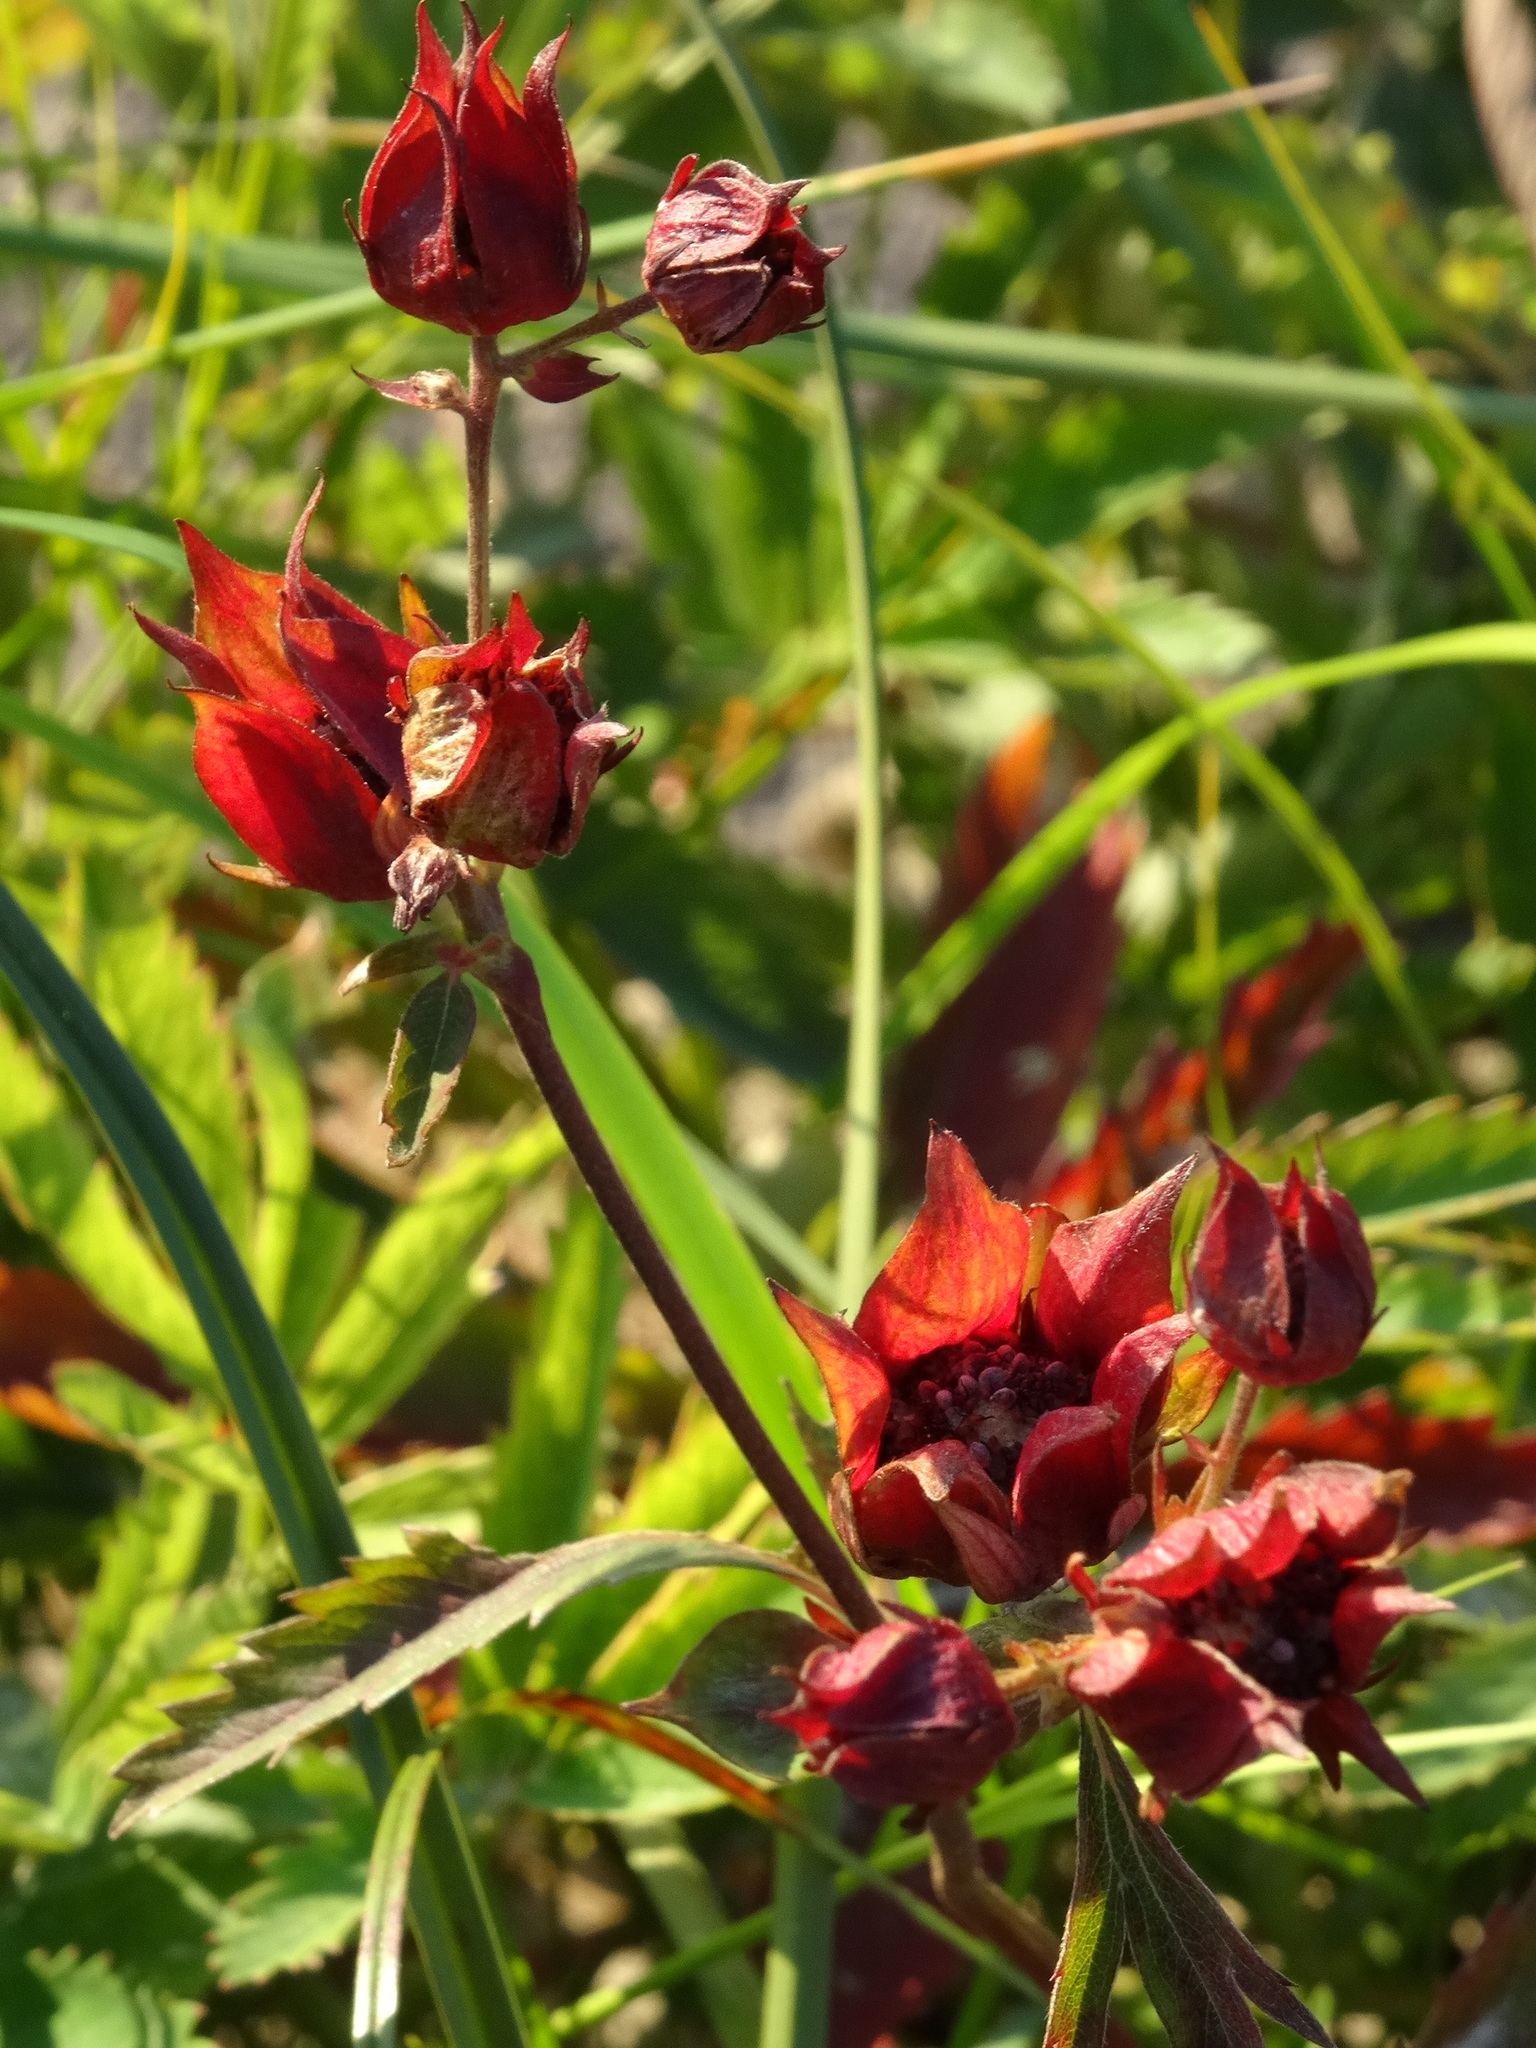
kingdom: Plantae
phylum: Tracheophyta
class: Magnoliopsida
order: Rosales
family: Rosaceae
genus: Comarum
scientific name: Comarum palustre
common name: Marsh cinquefoil
